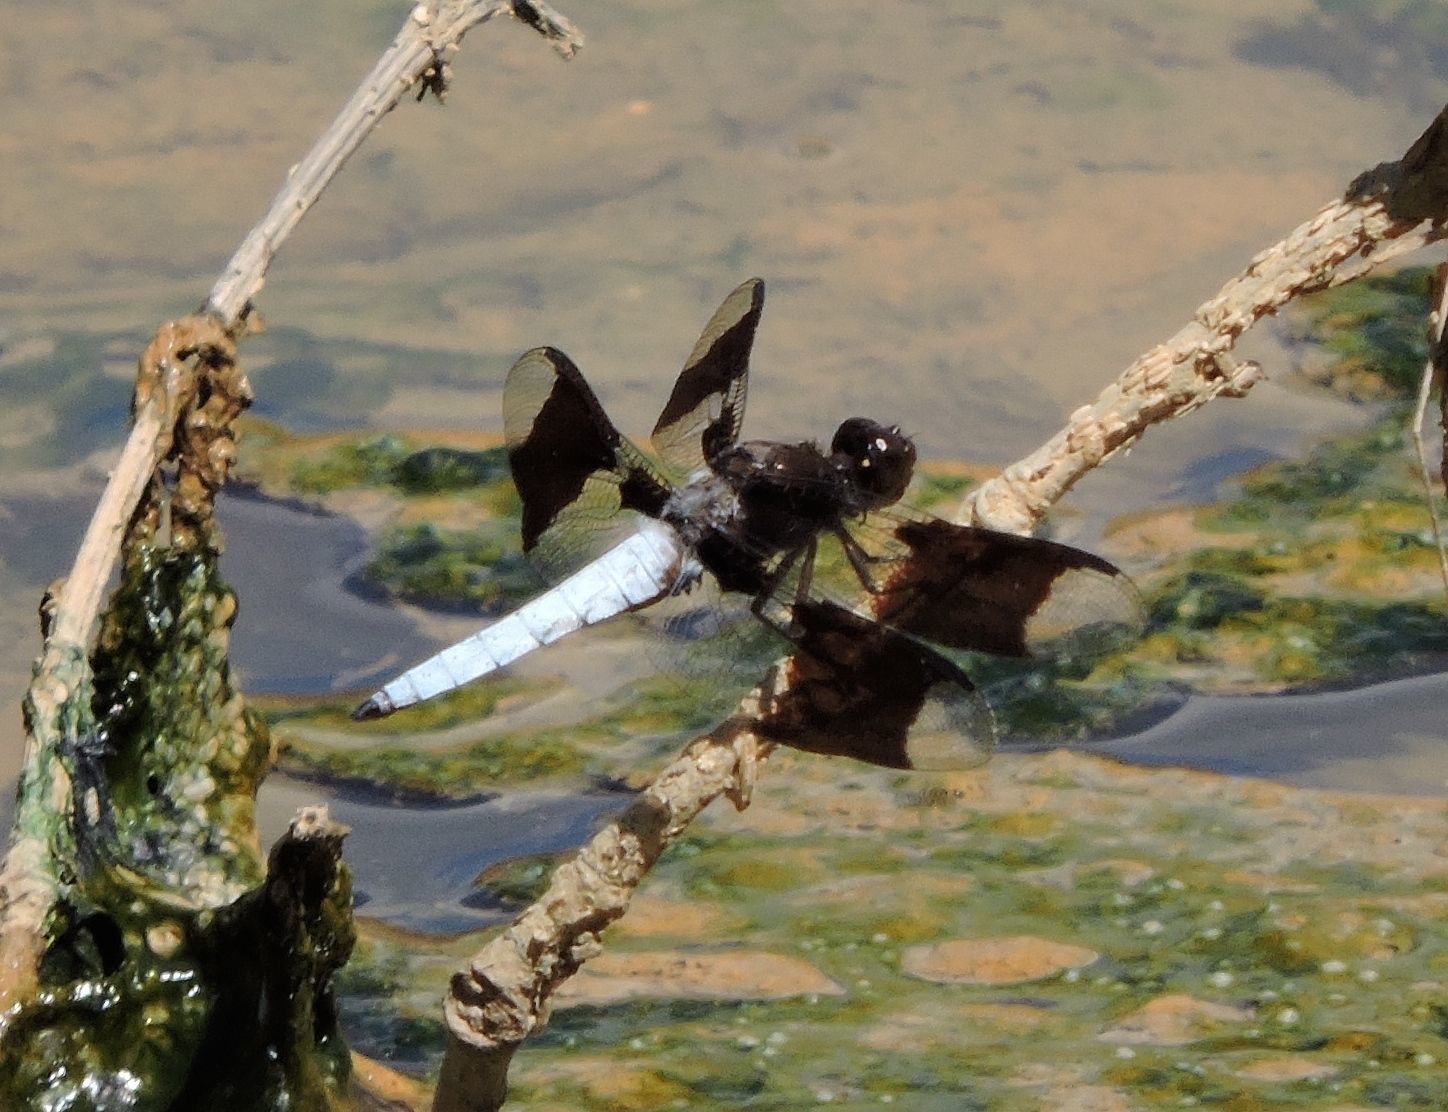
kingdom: Animalia
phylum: Arthropoda
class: Insecta
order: Odonata
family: Libellulidae
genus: Plathemis
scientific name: Plathemis lydia
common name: Common whitetail
